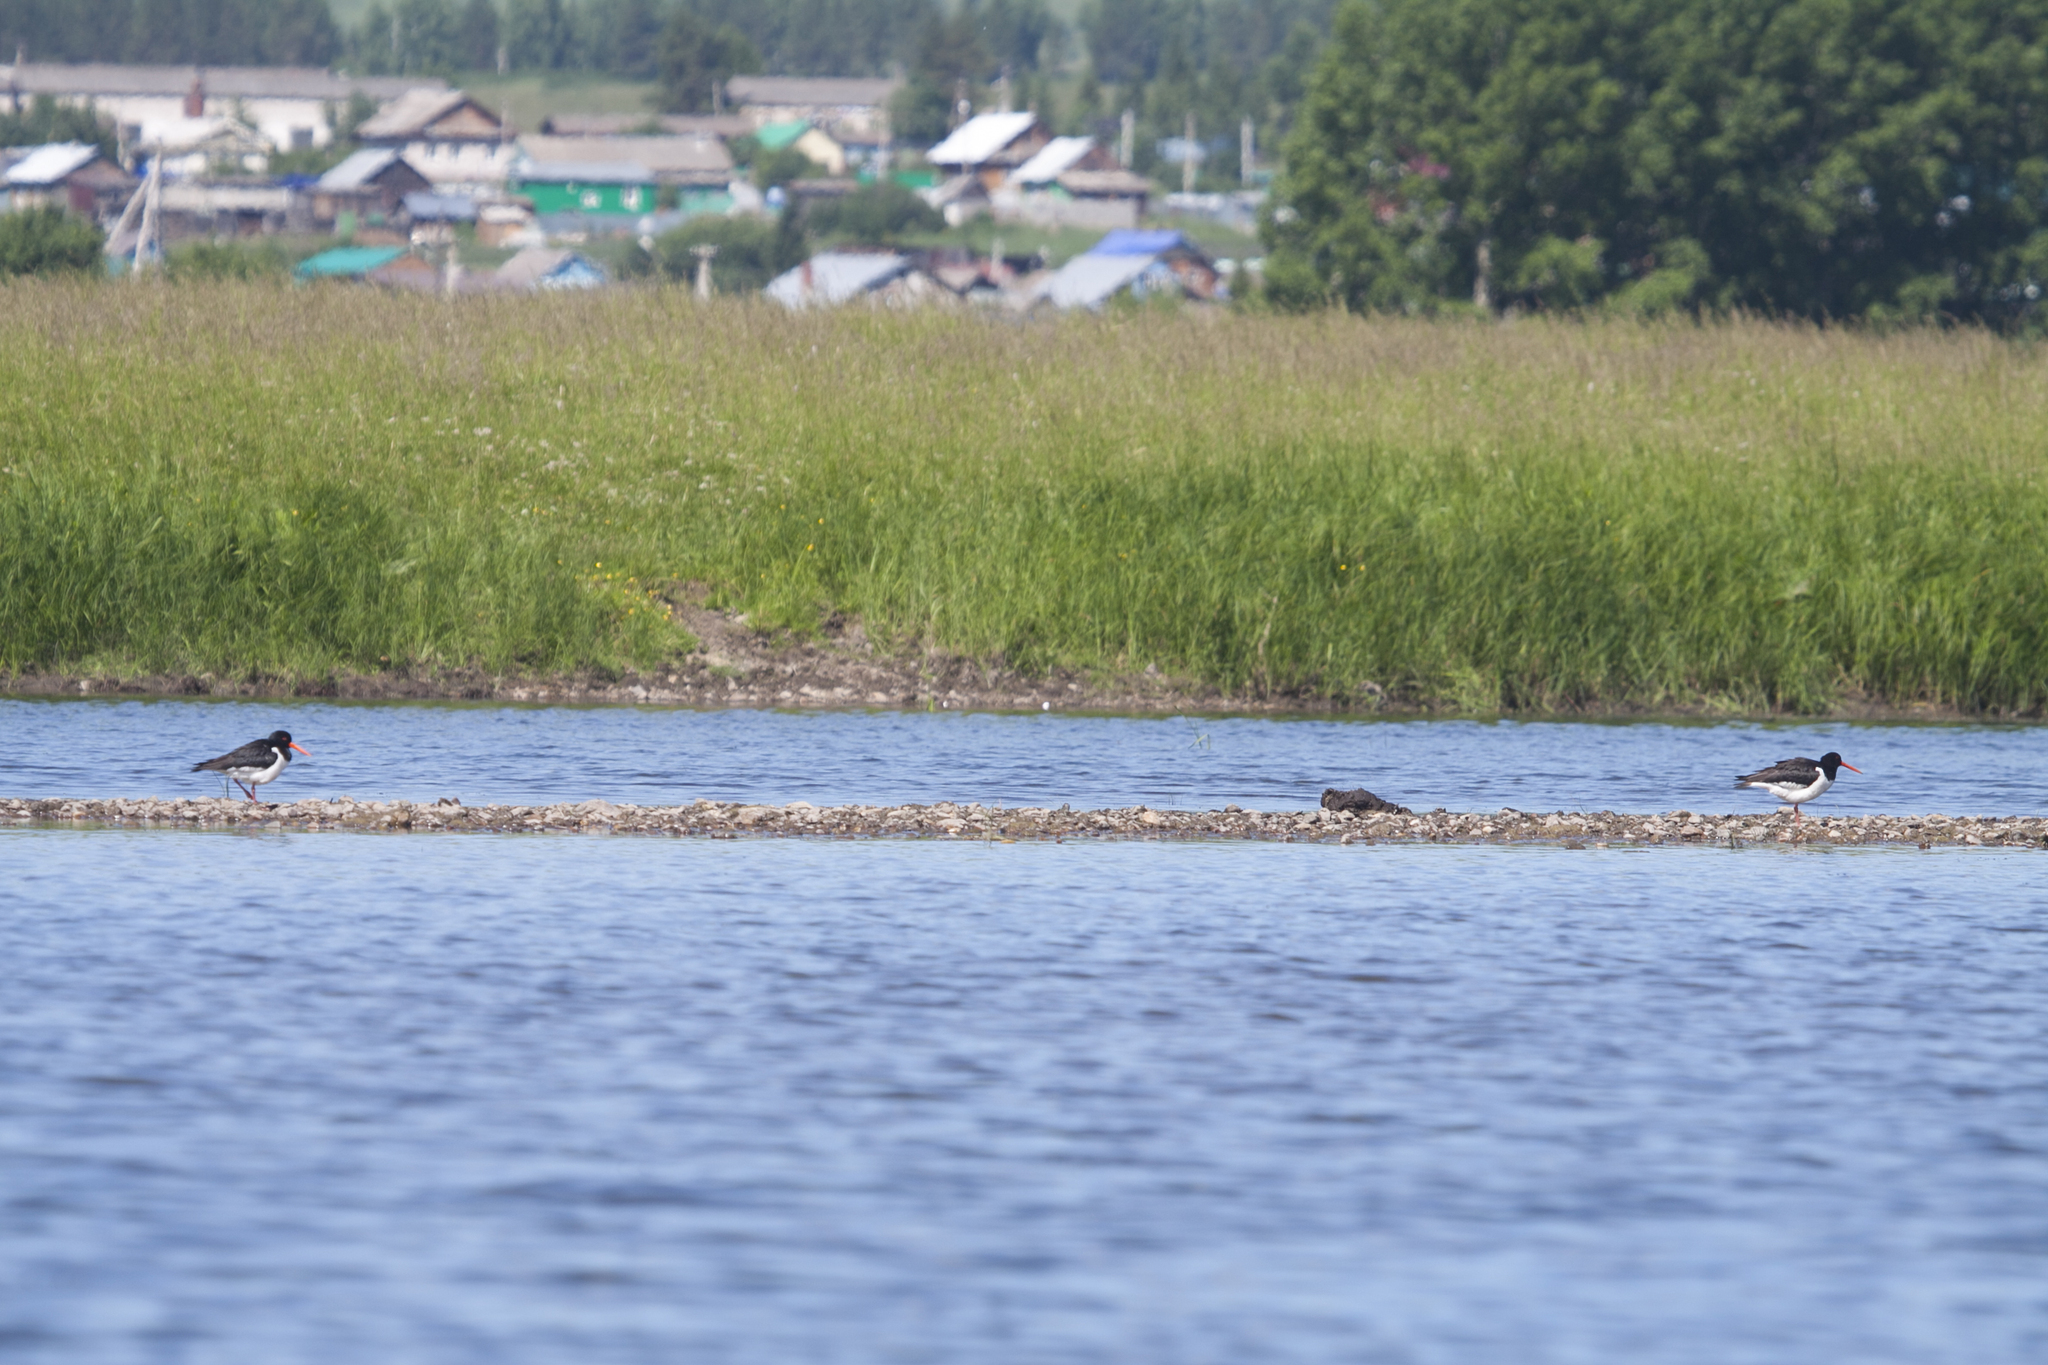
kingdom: Animalia
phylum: Chordata
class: Aves
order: Charadriiformes
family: Haematopodidae
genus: Haematopus
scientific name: Haematopus ostralegus
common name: Eurasian oystercatcher
